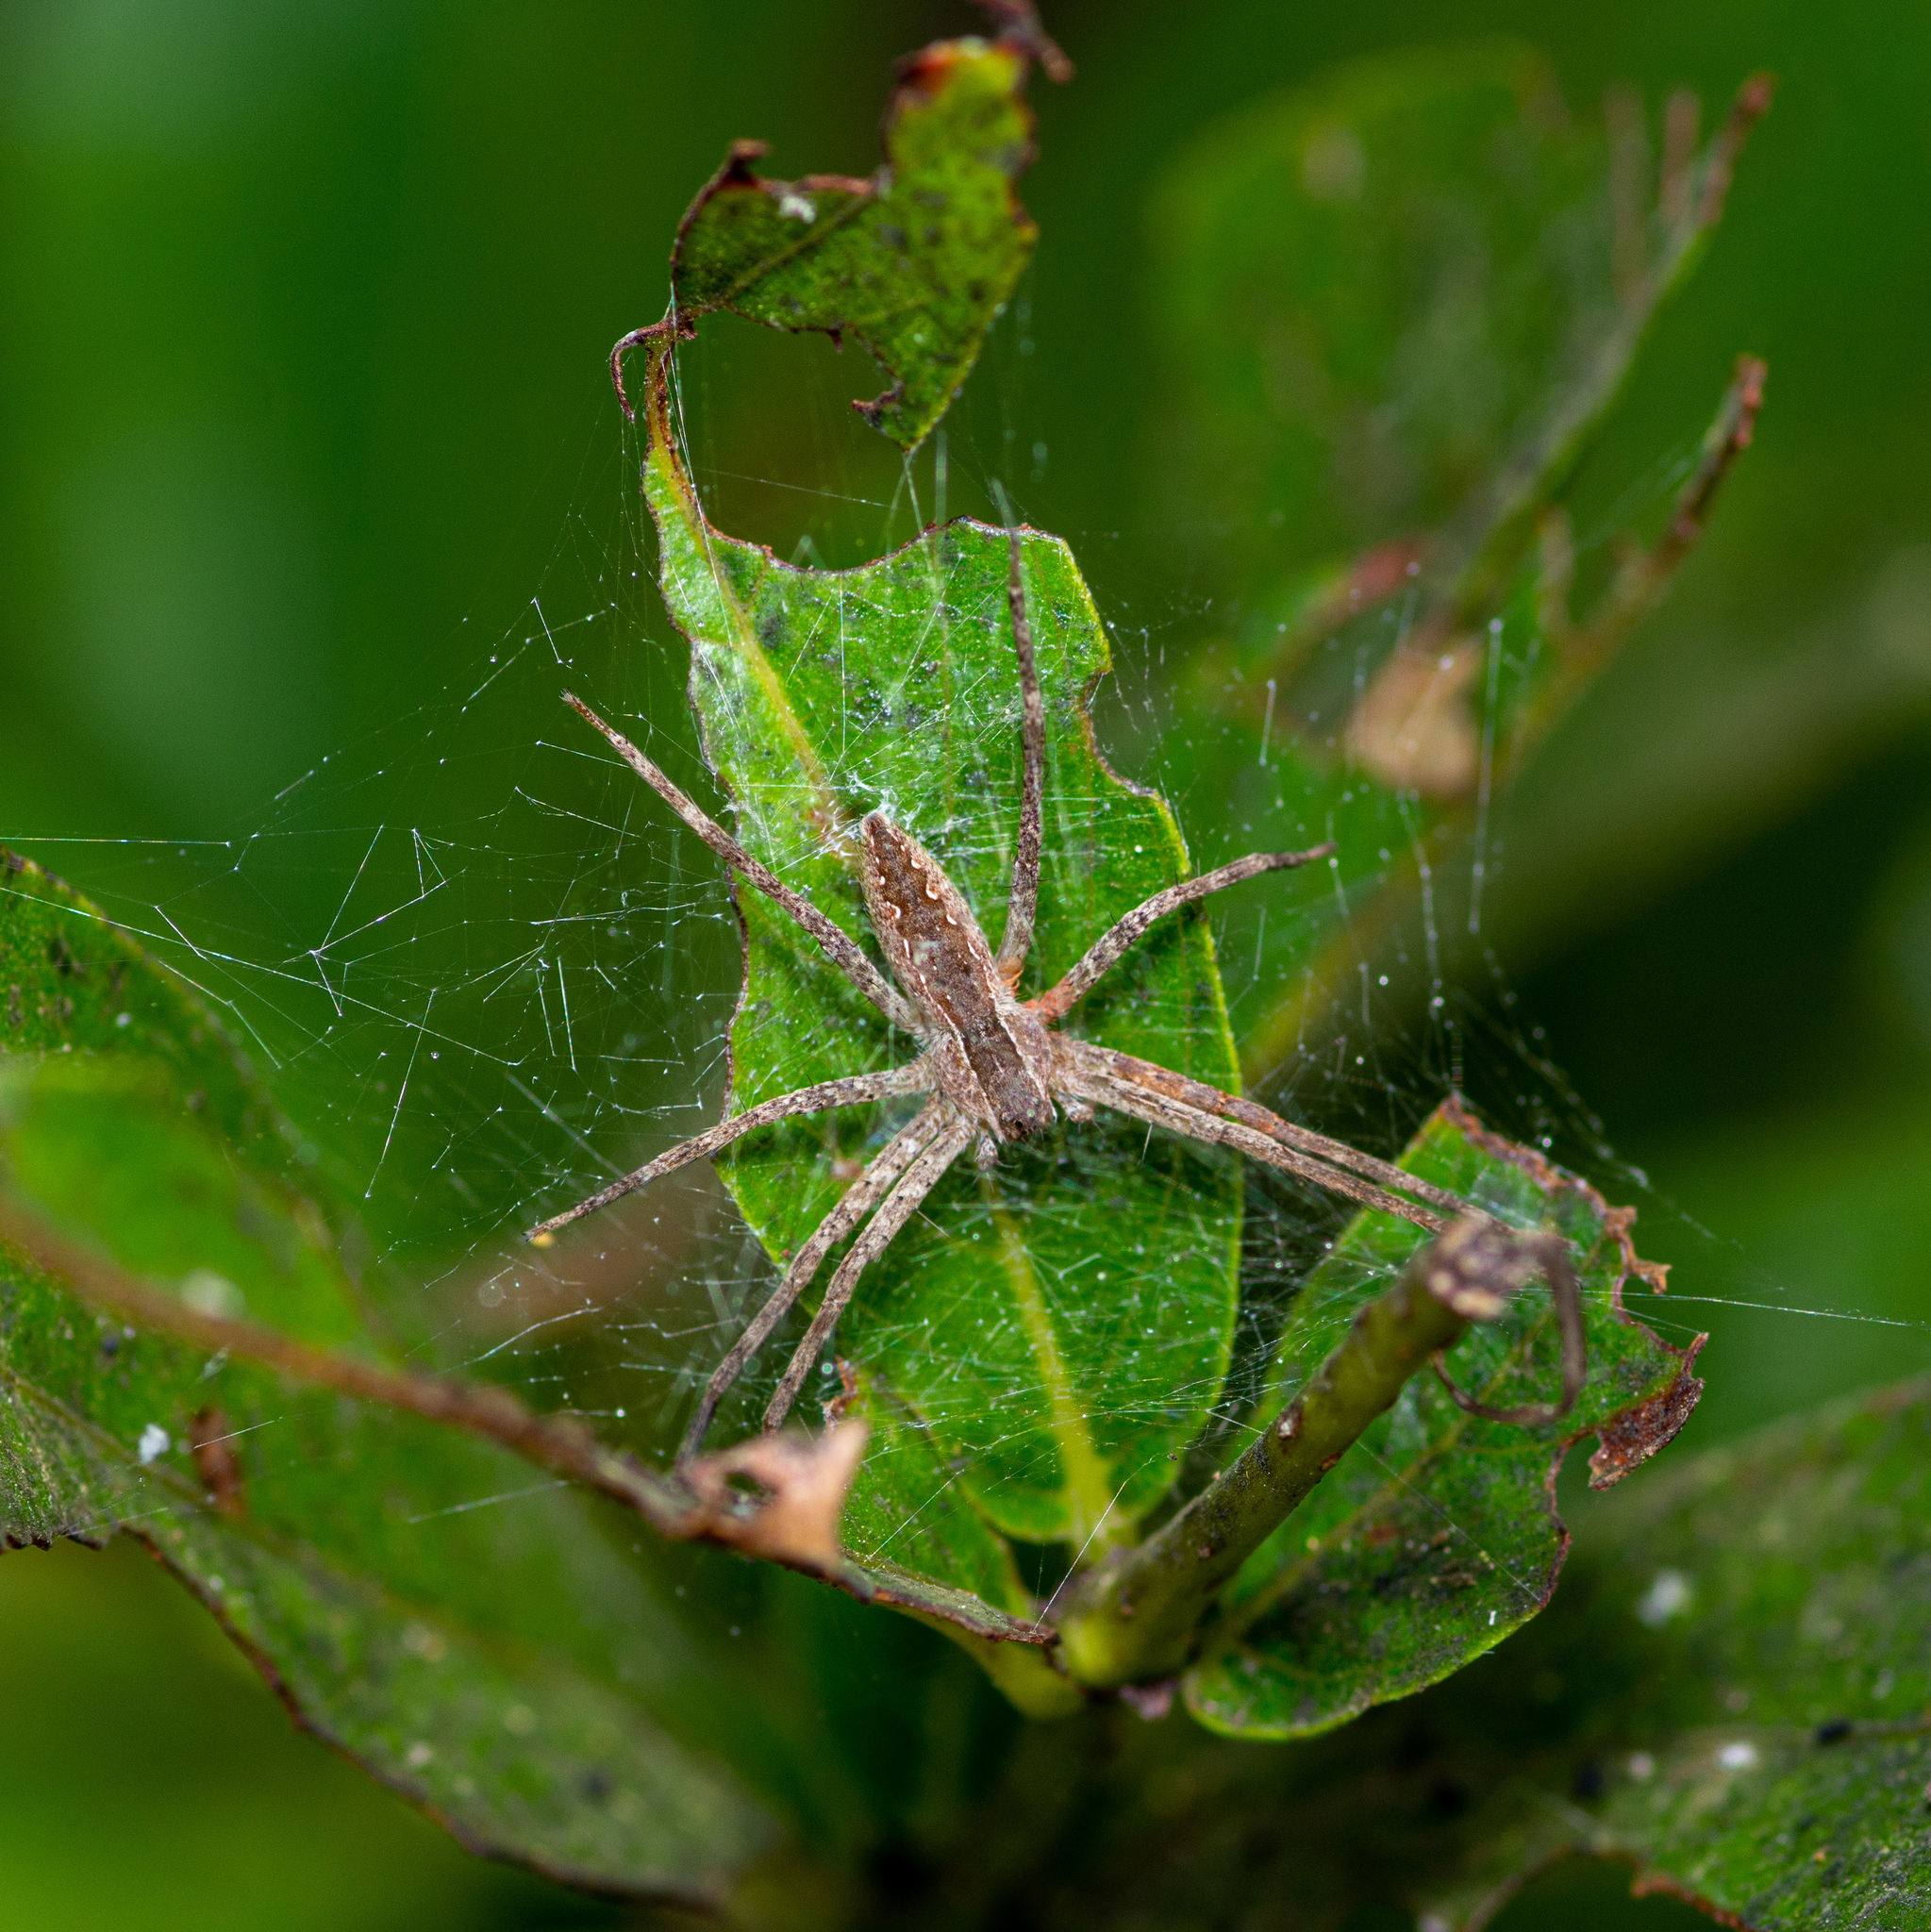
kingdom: Animalia
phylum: Arthropoda
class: Arachnida
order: Araneae
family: Pisauridae
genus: Pisaurina
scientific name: Pisaurina mira
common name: American nursery web spider
